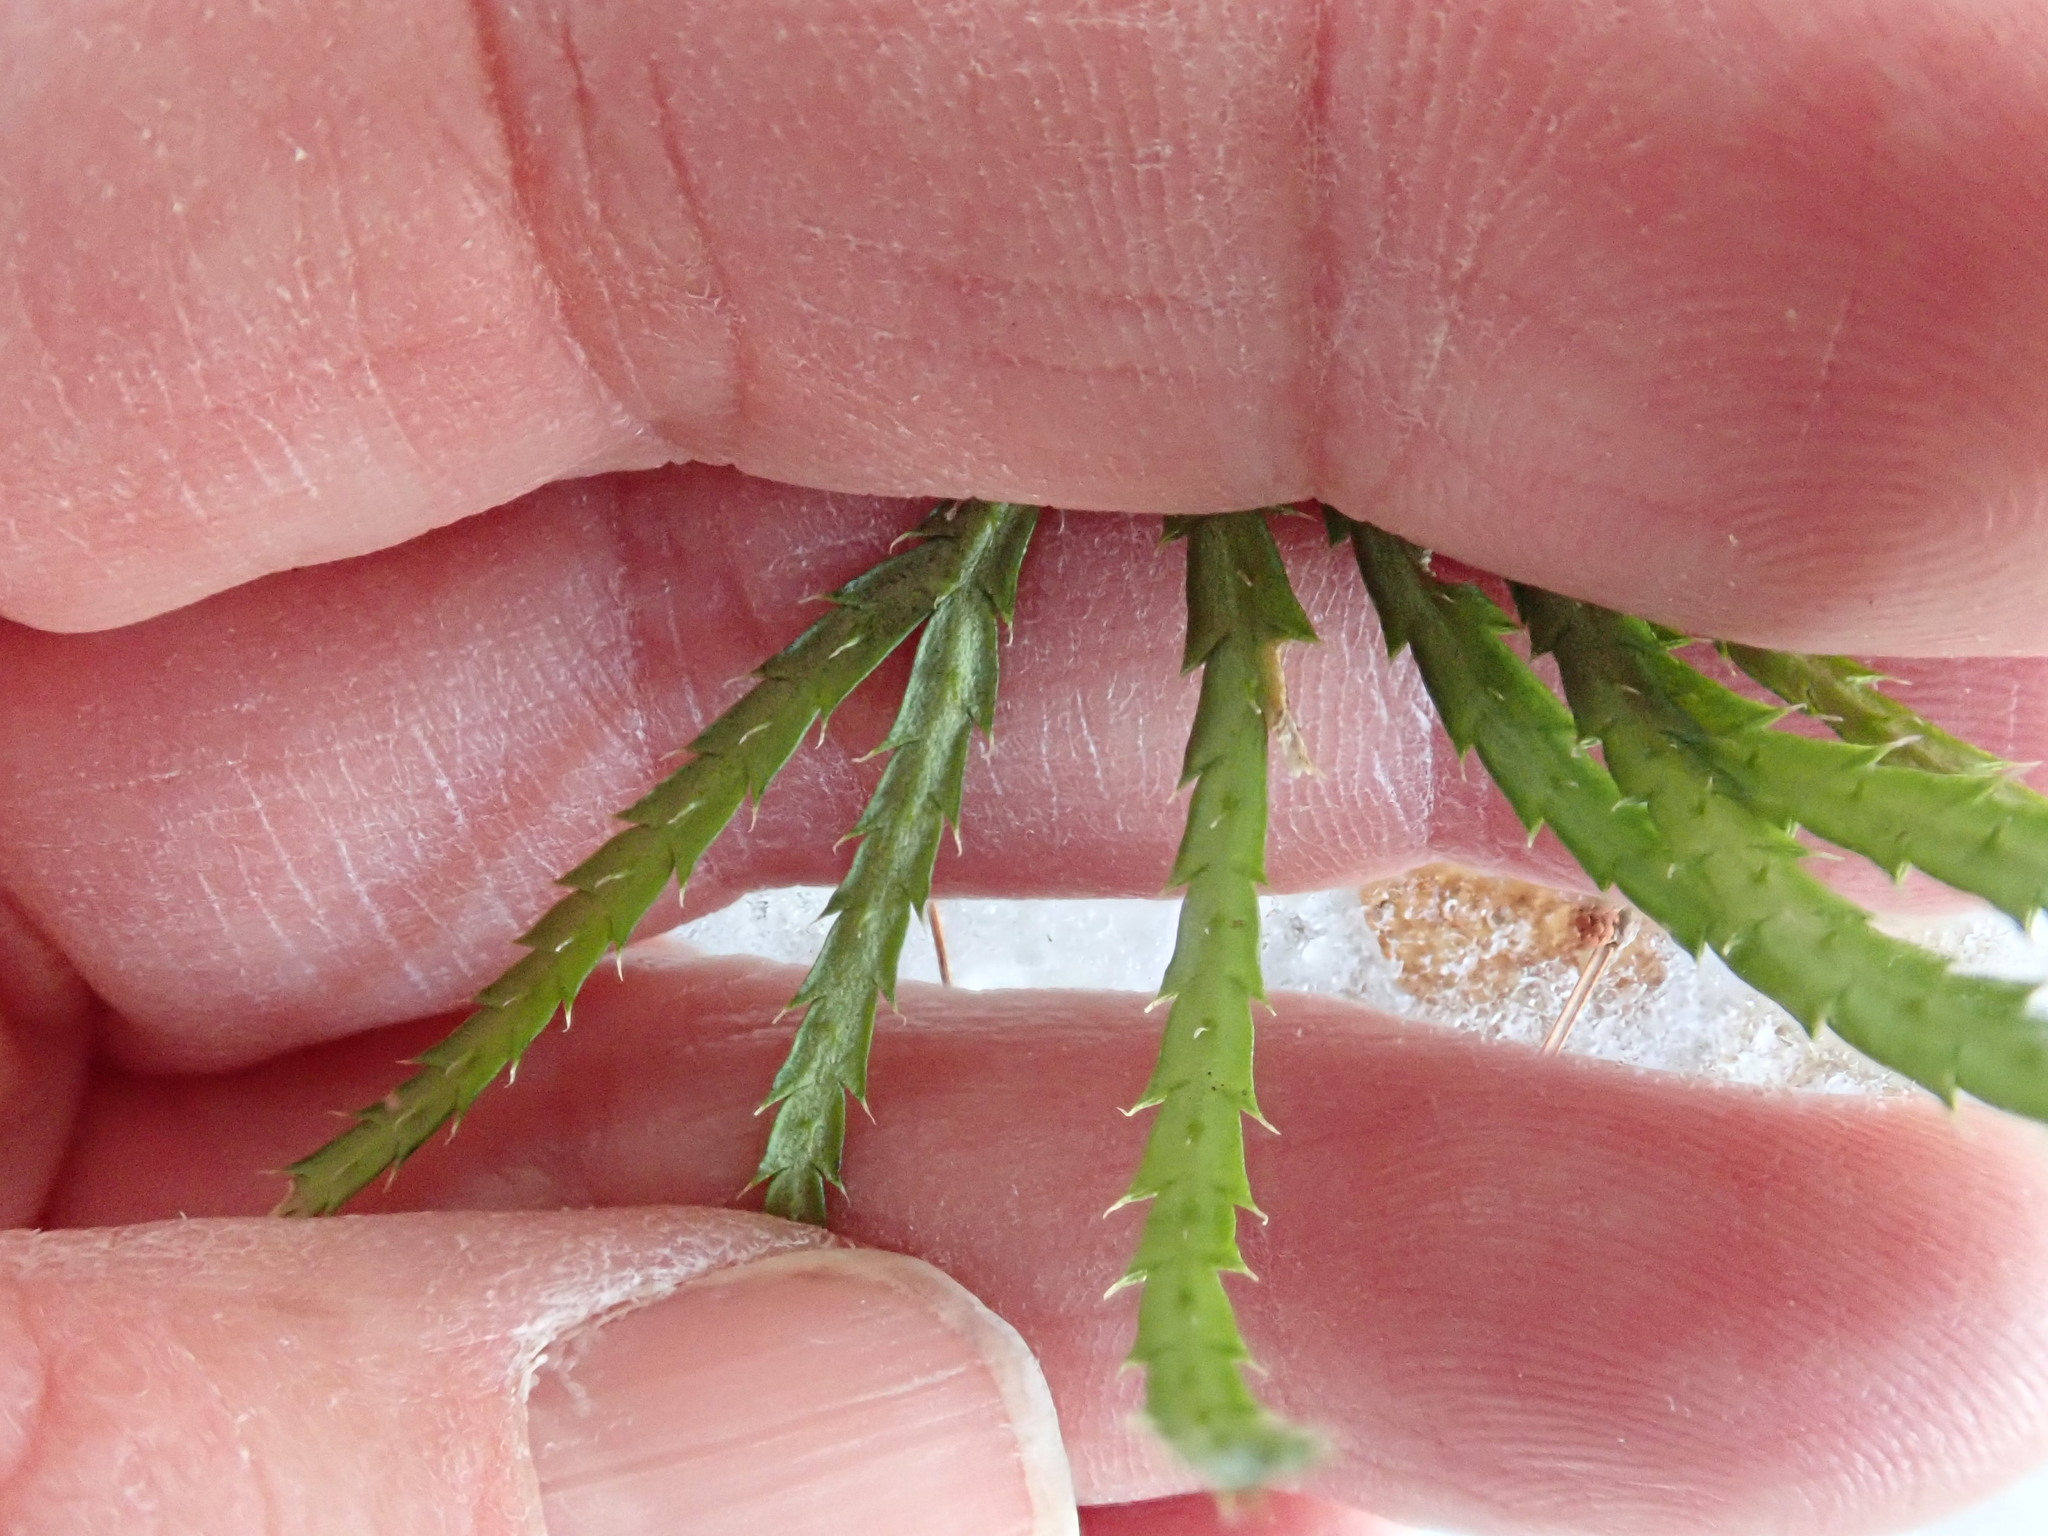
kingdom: Plantae
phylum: Tracheophyta
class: Lycopodiopsida
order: Lycopodiales
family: Lycopodiaceae
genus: Diphasiastrum
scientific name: Diphasiastrum digitatum
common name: Southern running-pine
